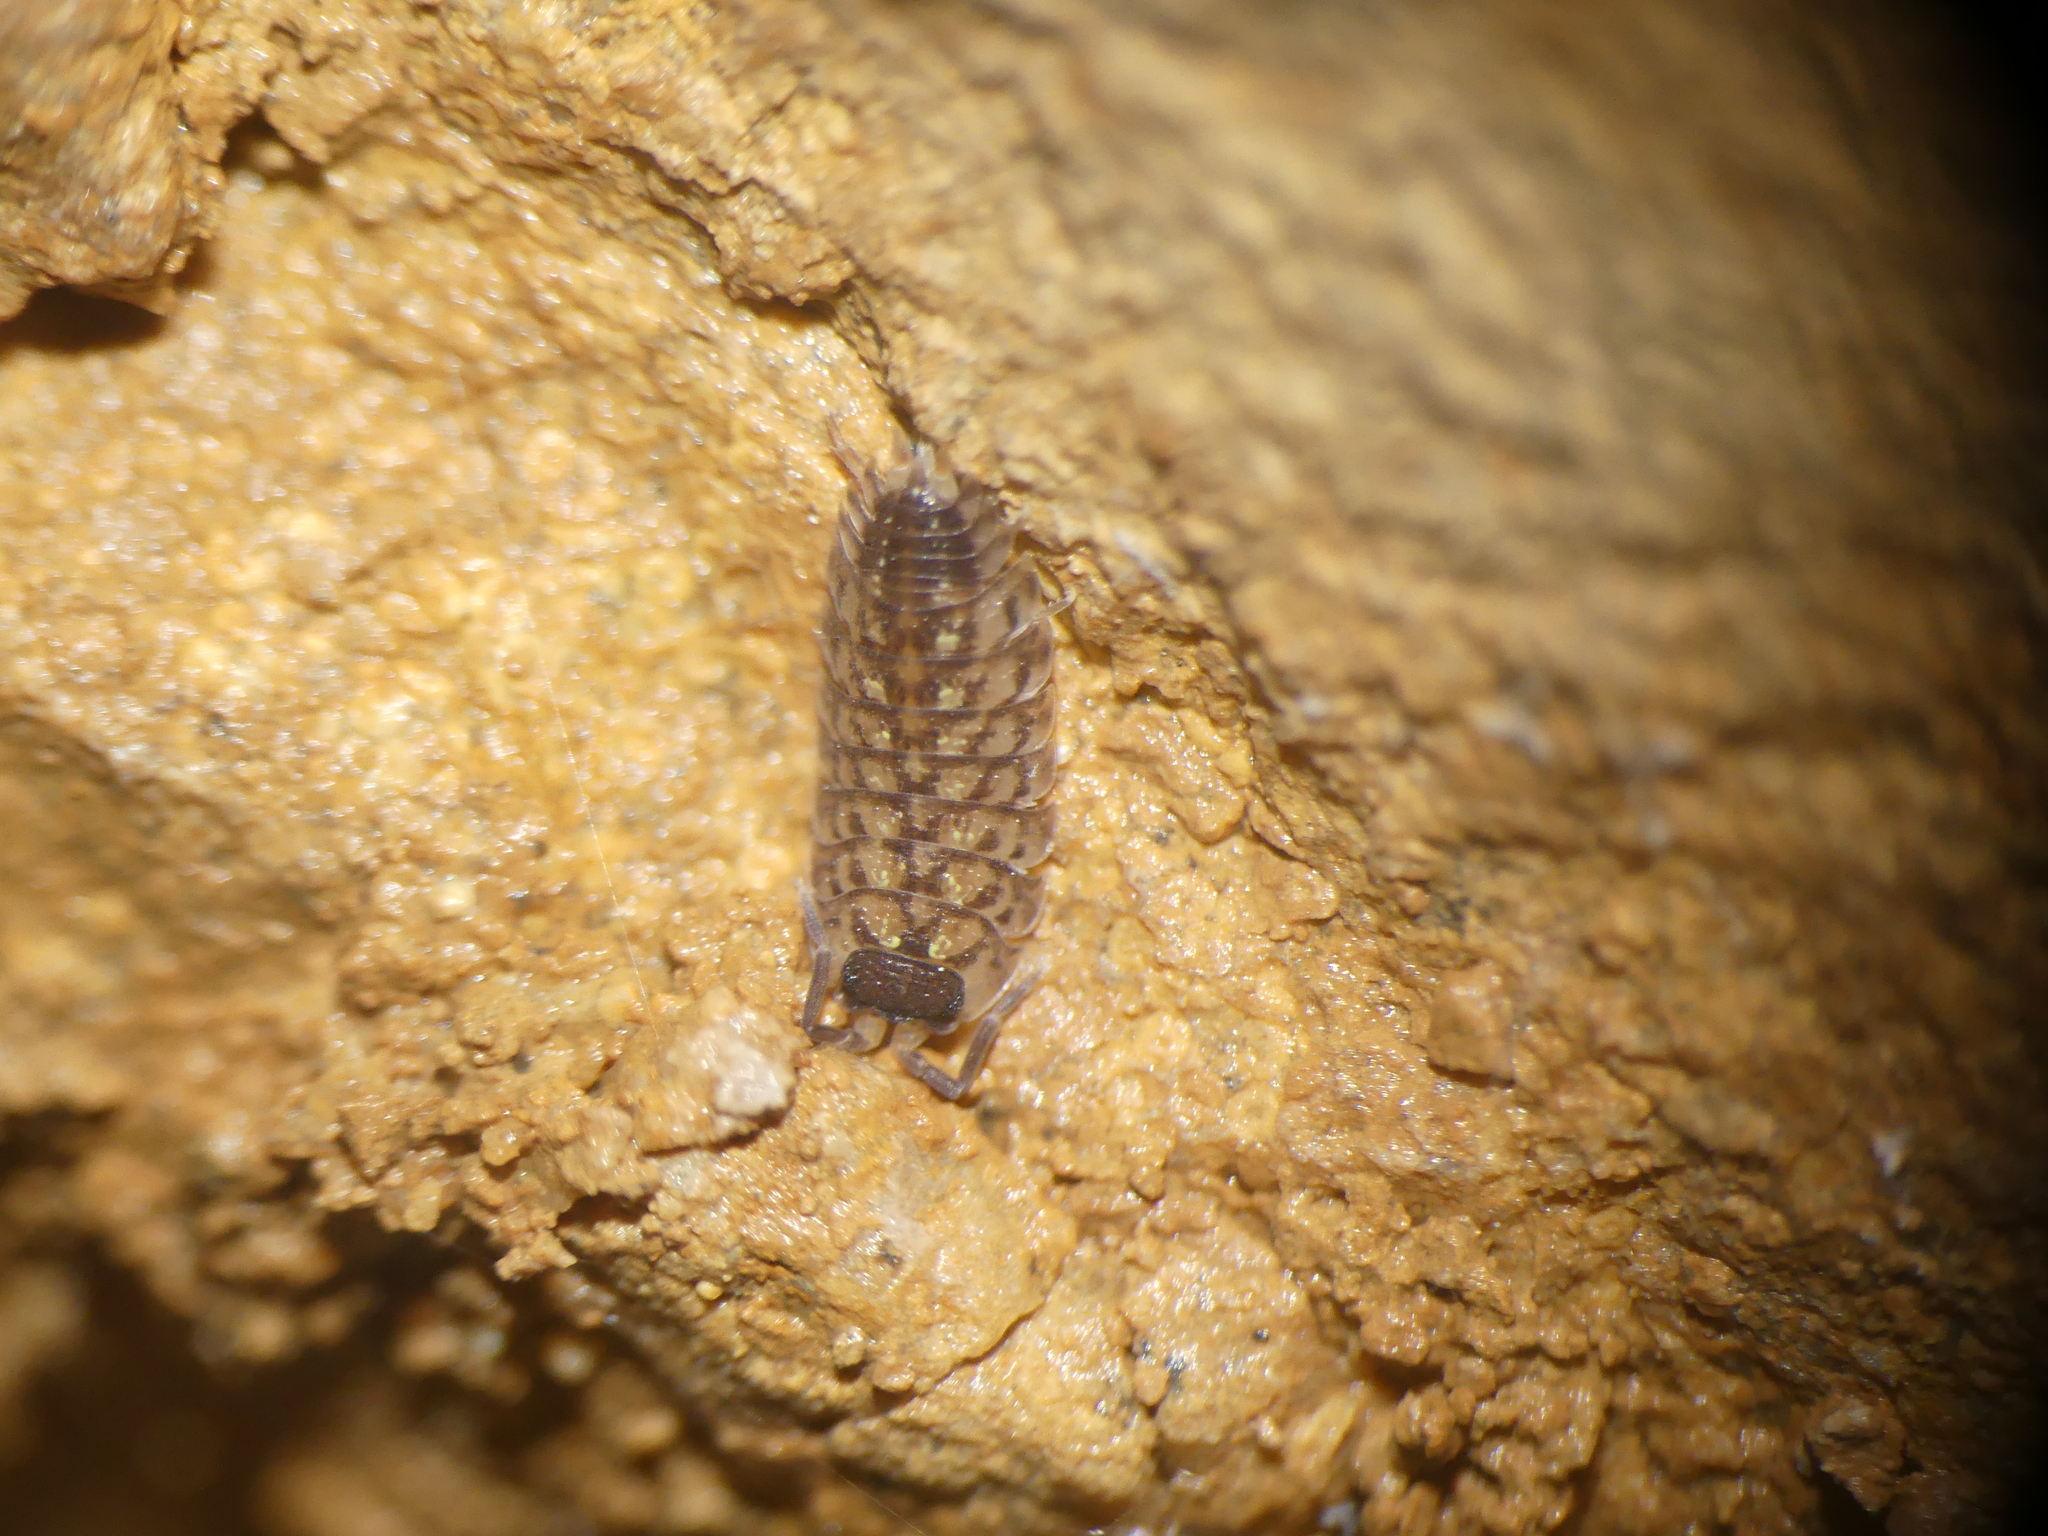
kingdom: Animalia
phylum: Arthropoda
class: Malacostraca
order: Isopoda
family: Porcellionidae
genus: Porcellio
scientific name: Porcellio spinicornis
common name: Painted woodlouse
